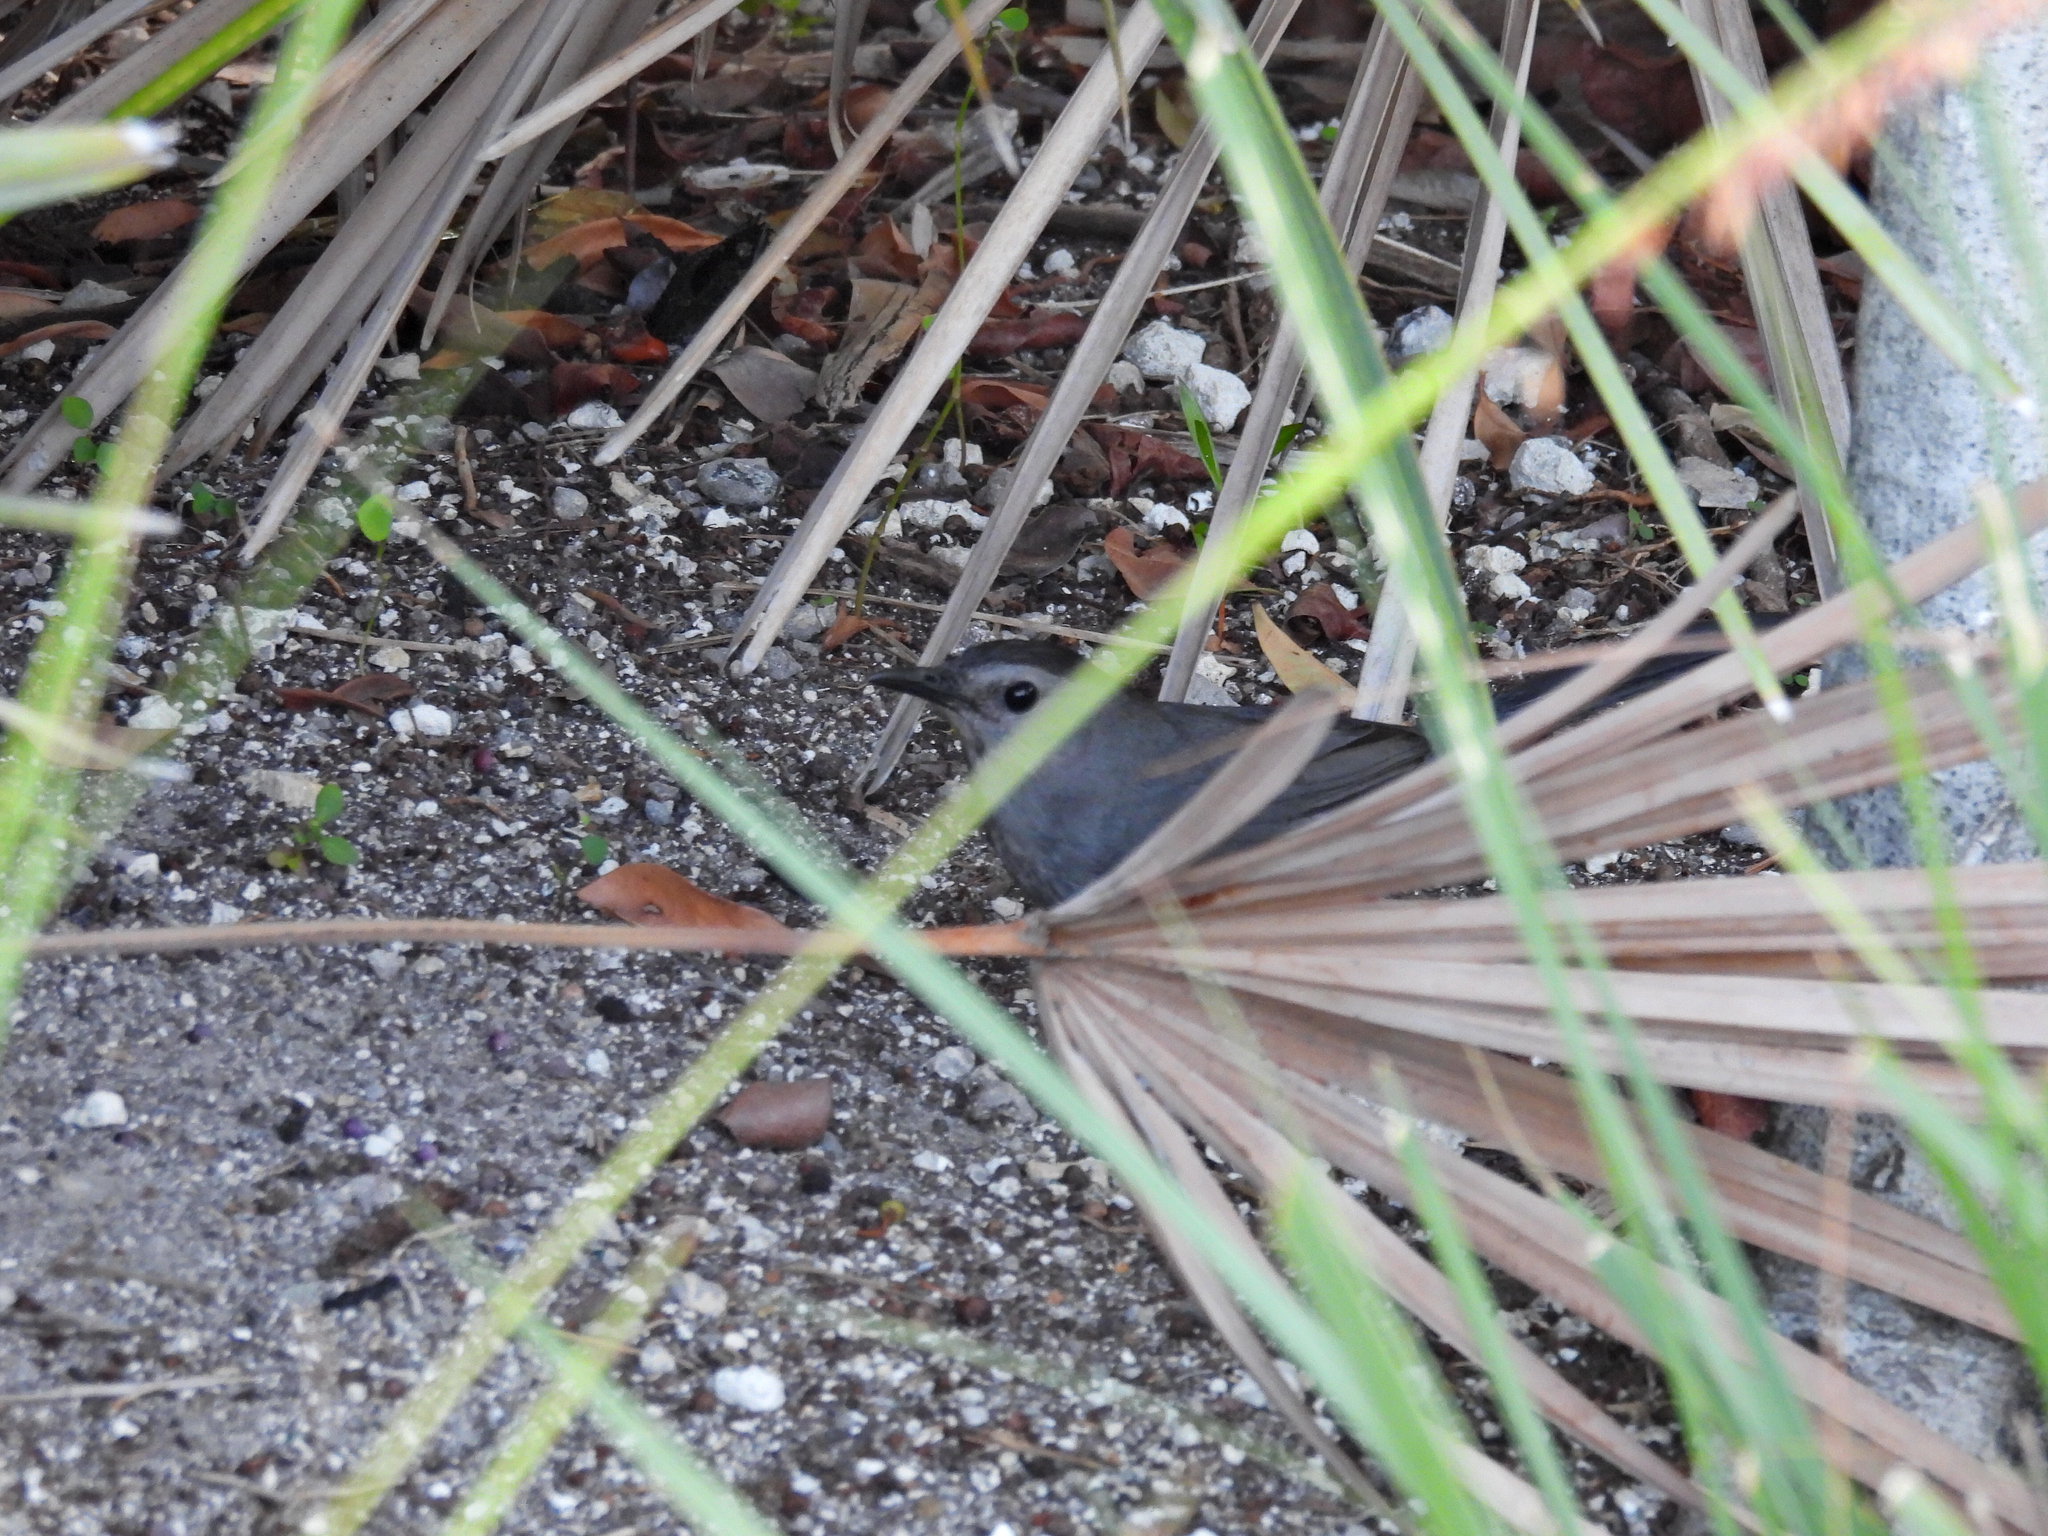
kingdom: Animalia
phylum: Chordata
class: Aves
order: Passeriformes
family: Mimidae
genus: Dumetella
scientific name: Dumetella carolinensis
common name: Gray catbird
